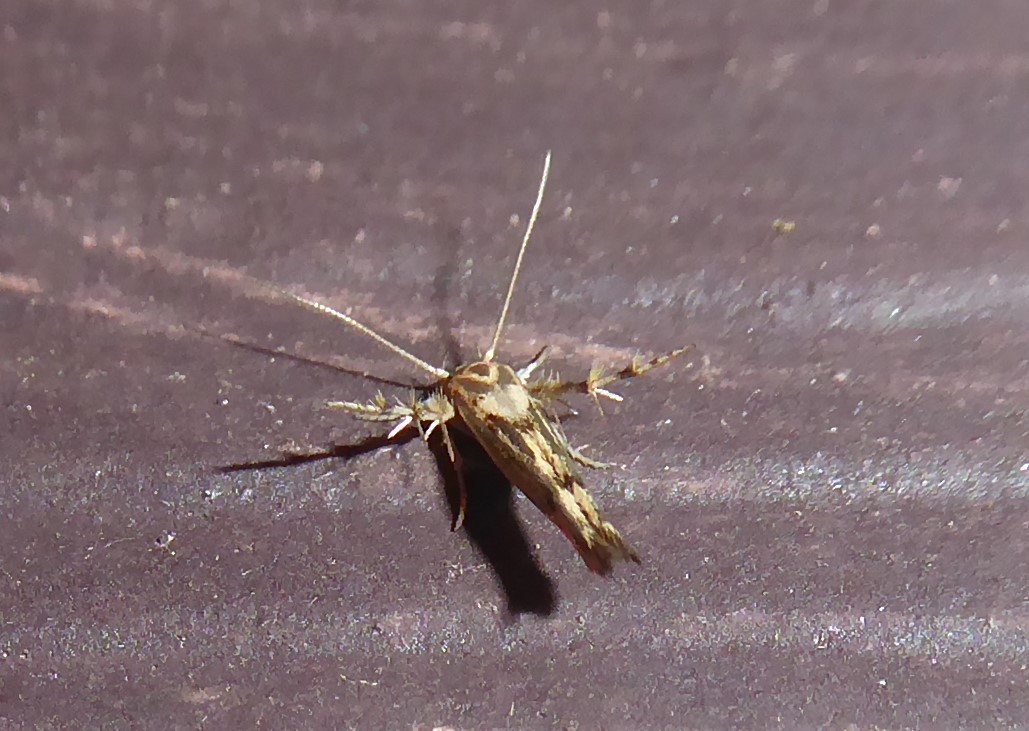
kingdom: Animalia
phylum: Arthropoda
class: Insecta
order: Lepidoptera
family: Stathmopodidae
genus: Stathmopoda
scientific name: Stathmopoda plumbiflua
